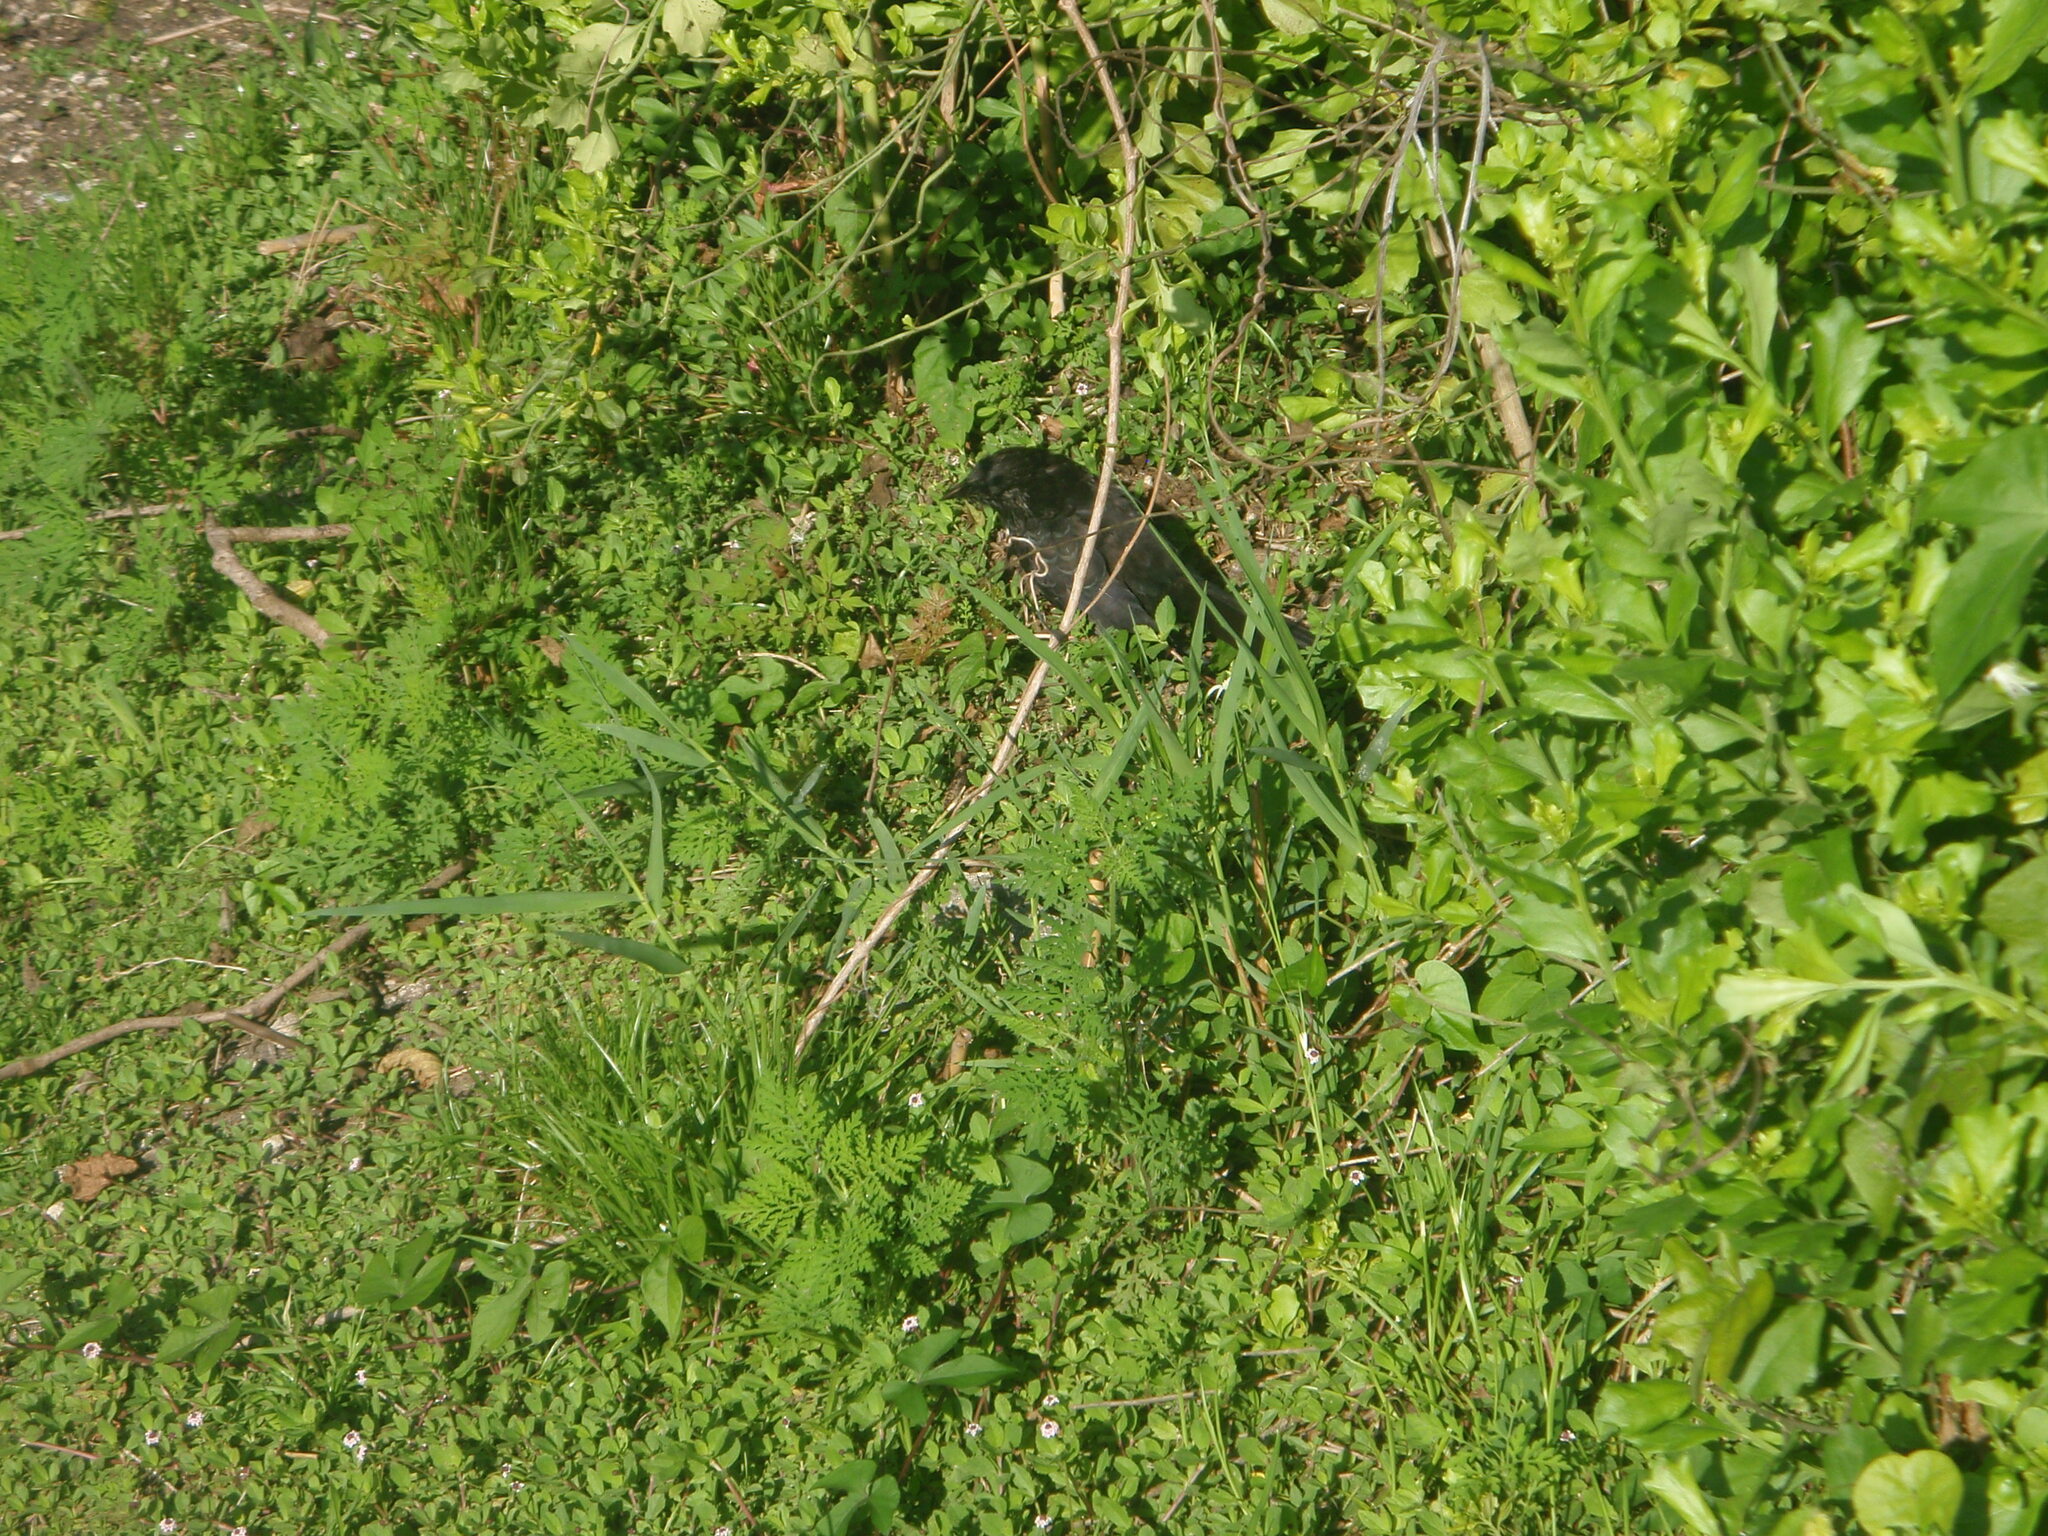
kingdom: Animalia
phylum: Chordata
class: Aves
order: Cuculiformes
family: Cuculidae
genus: Crotophaga
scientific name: Crotophaga ani
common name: Smooth-billed ani
